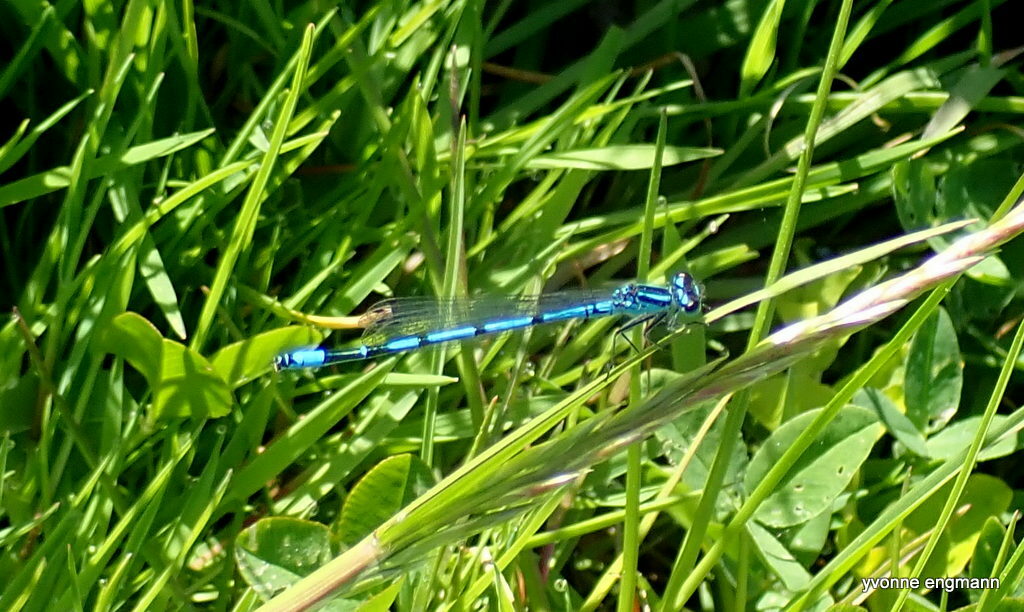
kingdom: Animalia
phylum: Arthropoda
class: Insecta
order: Odonata
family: Coenagrionidae
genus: Coenagrion
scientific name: Coenagrion puella
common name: Azure damselfly
